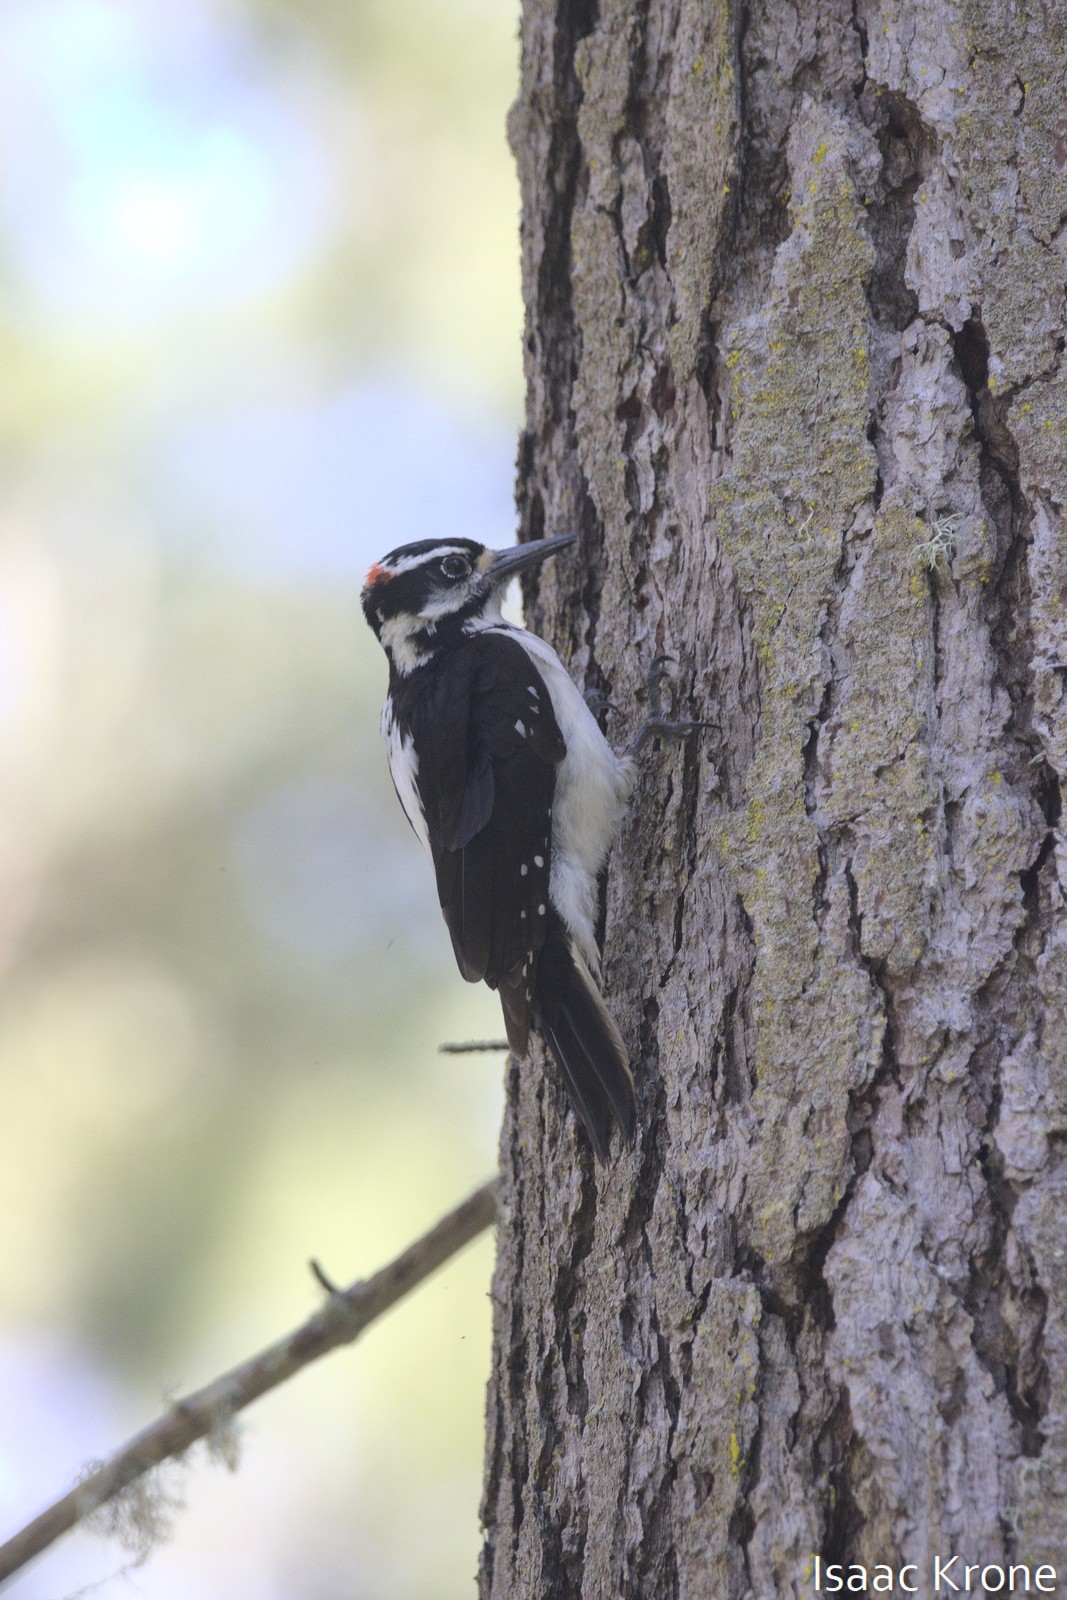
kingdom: Animalia
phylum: Chordata
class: Aves
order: Piciformes
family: Picidae
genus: Leuconotopicus
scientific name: Leuconotopicus villosus
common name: Hairy woodpecker
